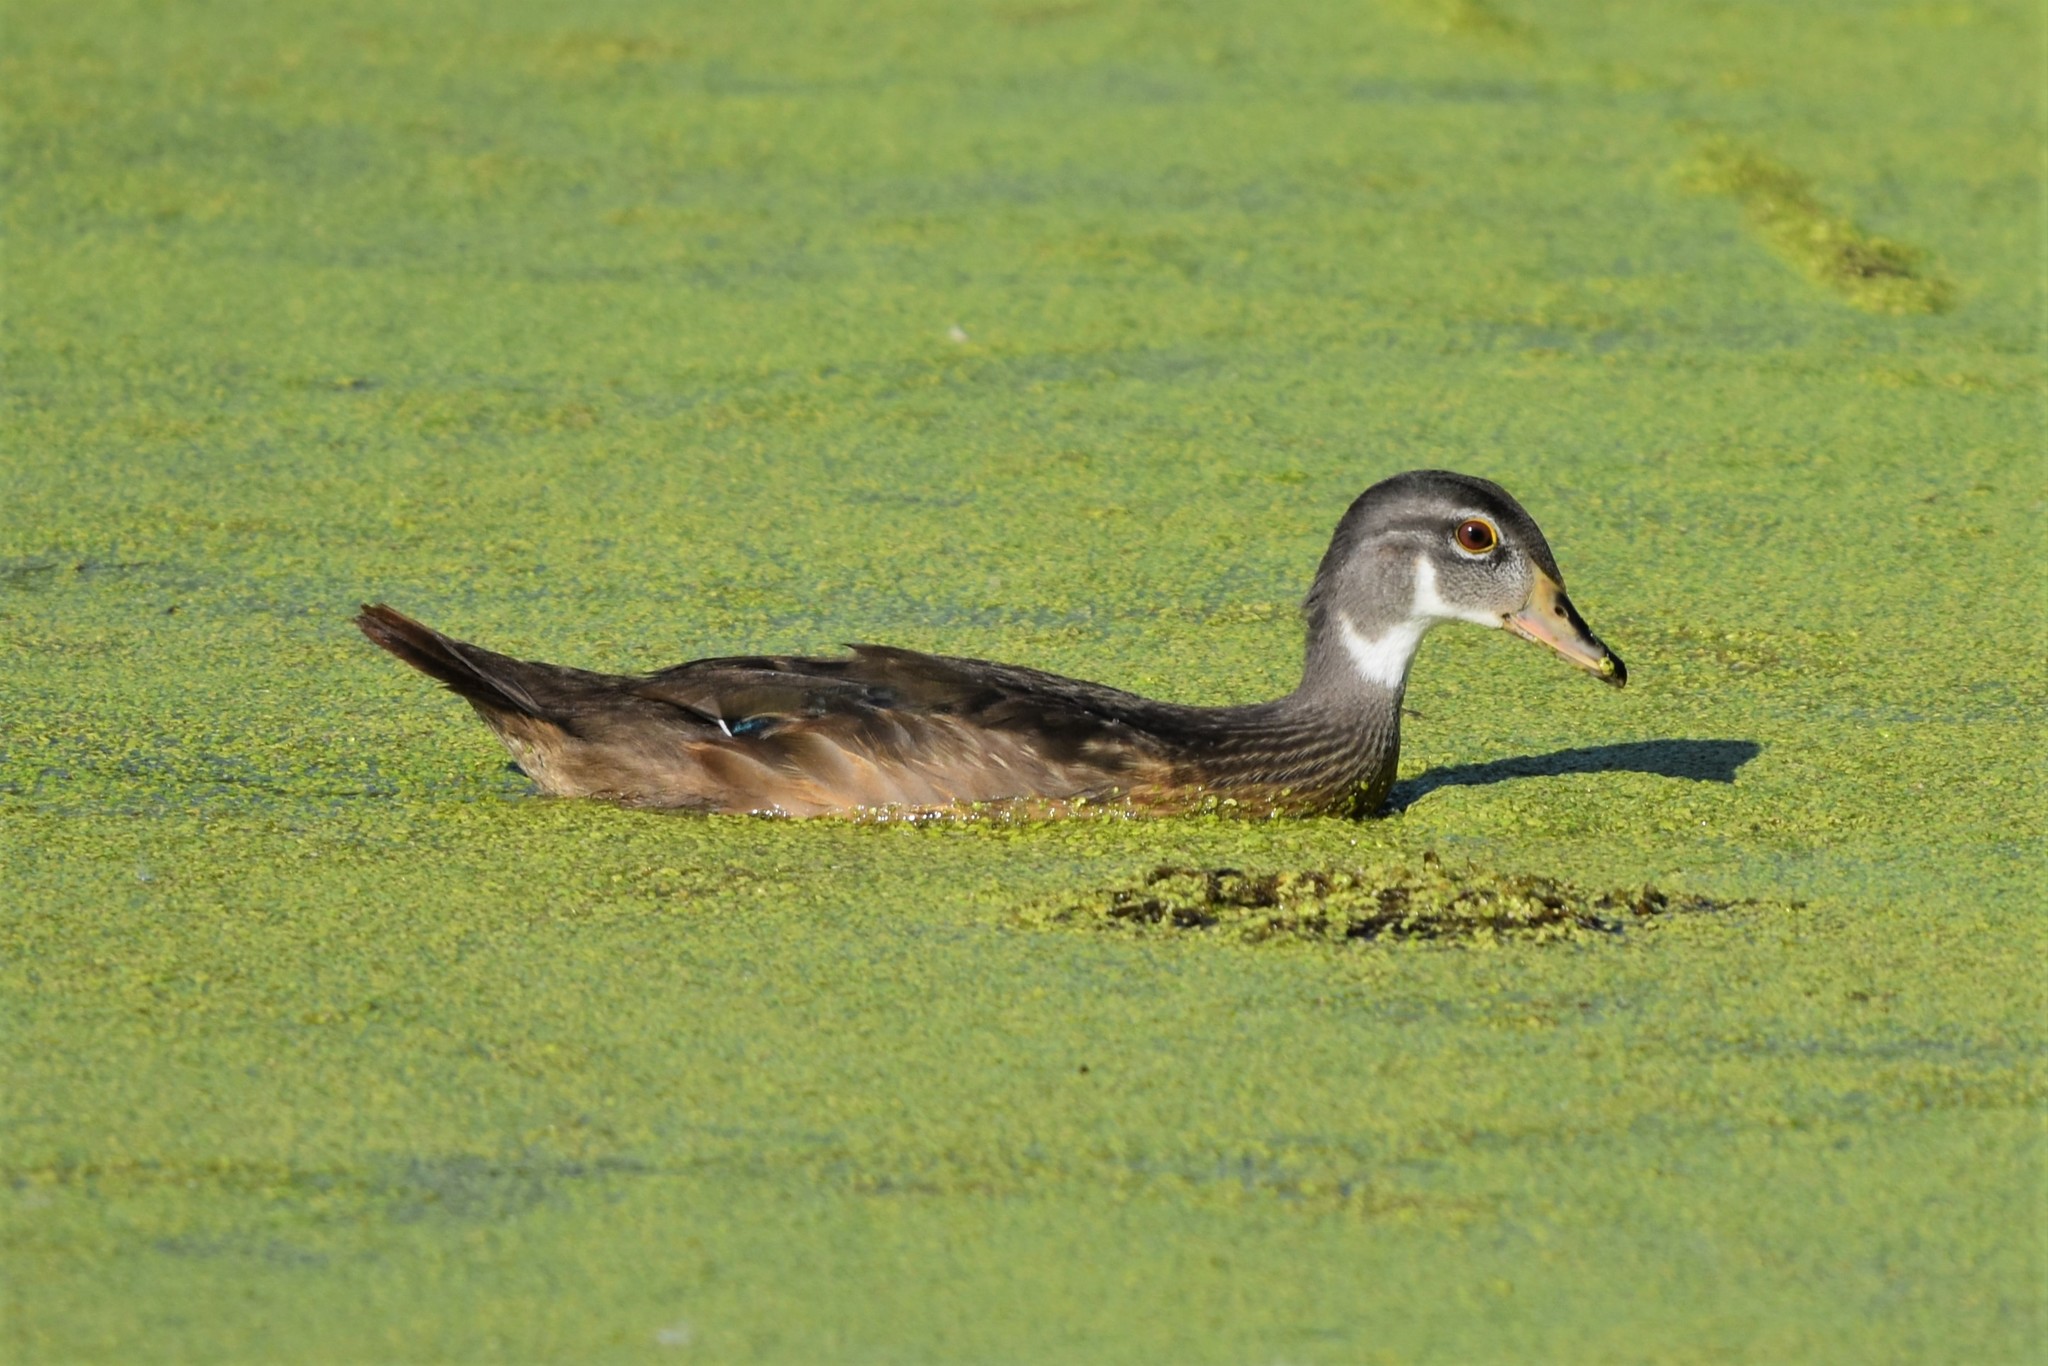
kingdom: Animalia
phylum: Chordata
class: Aves
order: Anseriformes
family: Anatidae
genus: Aix
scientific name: Aix sponsa
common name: Wood duck
